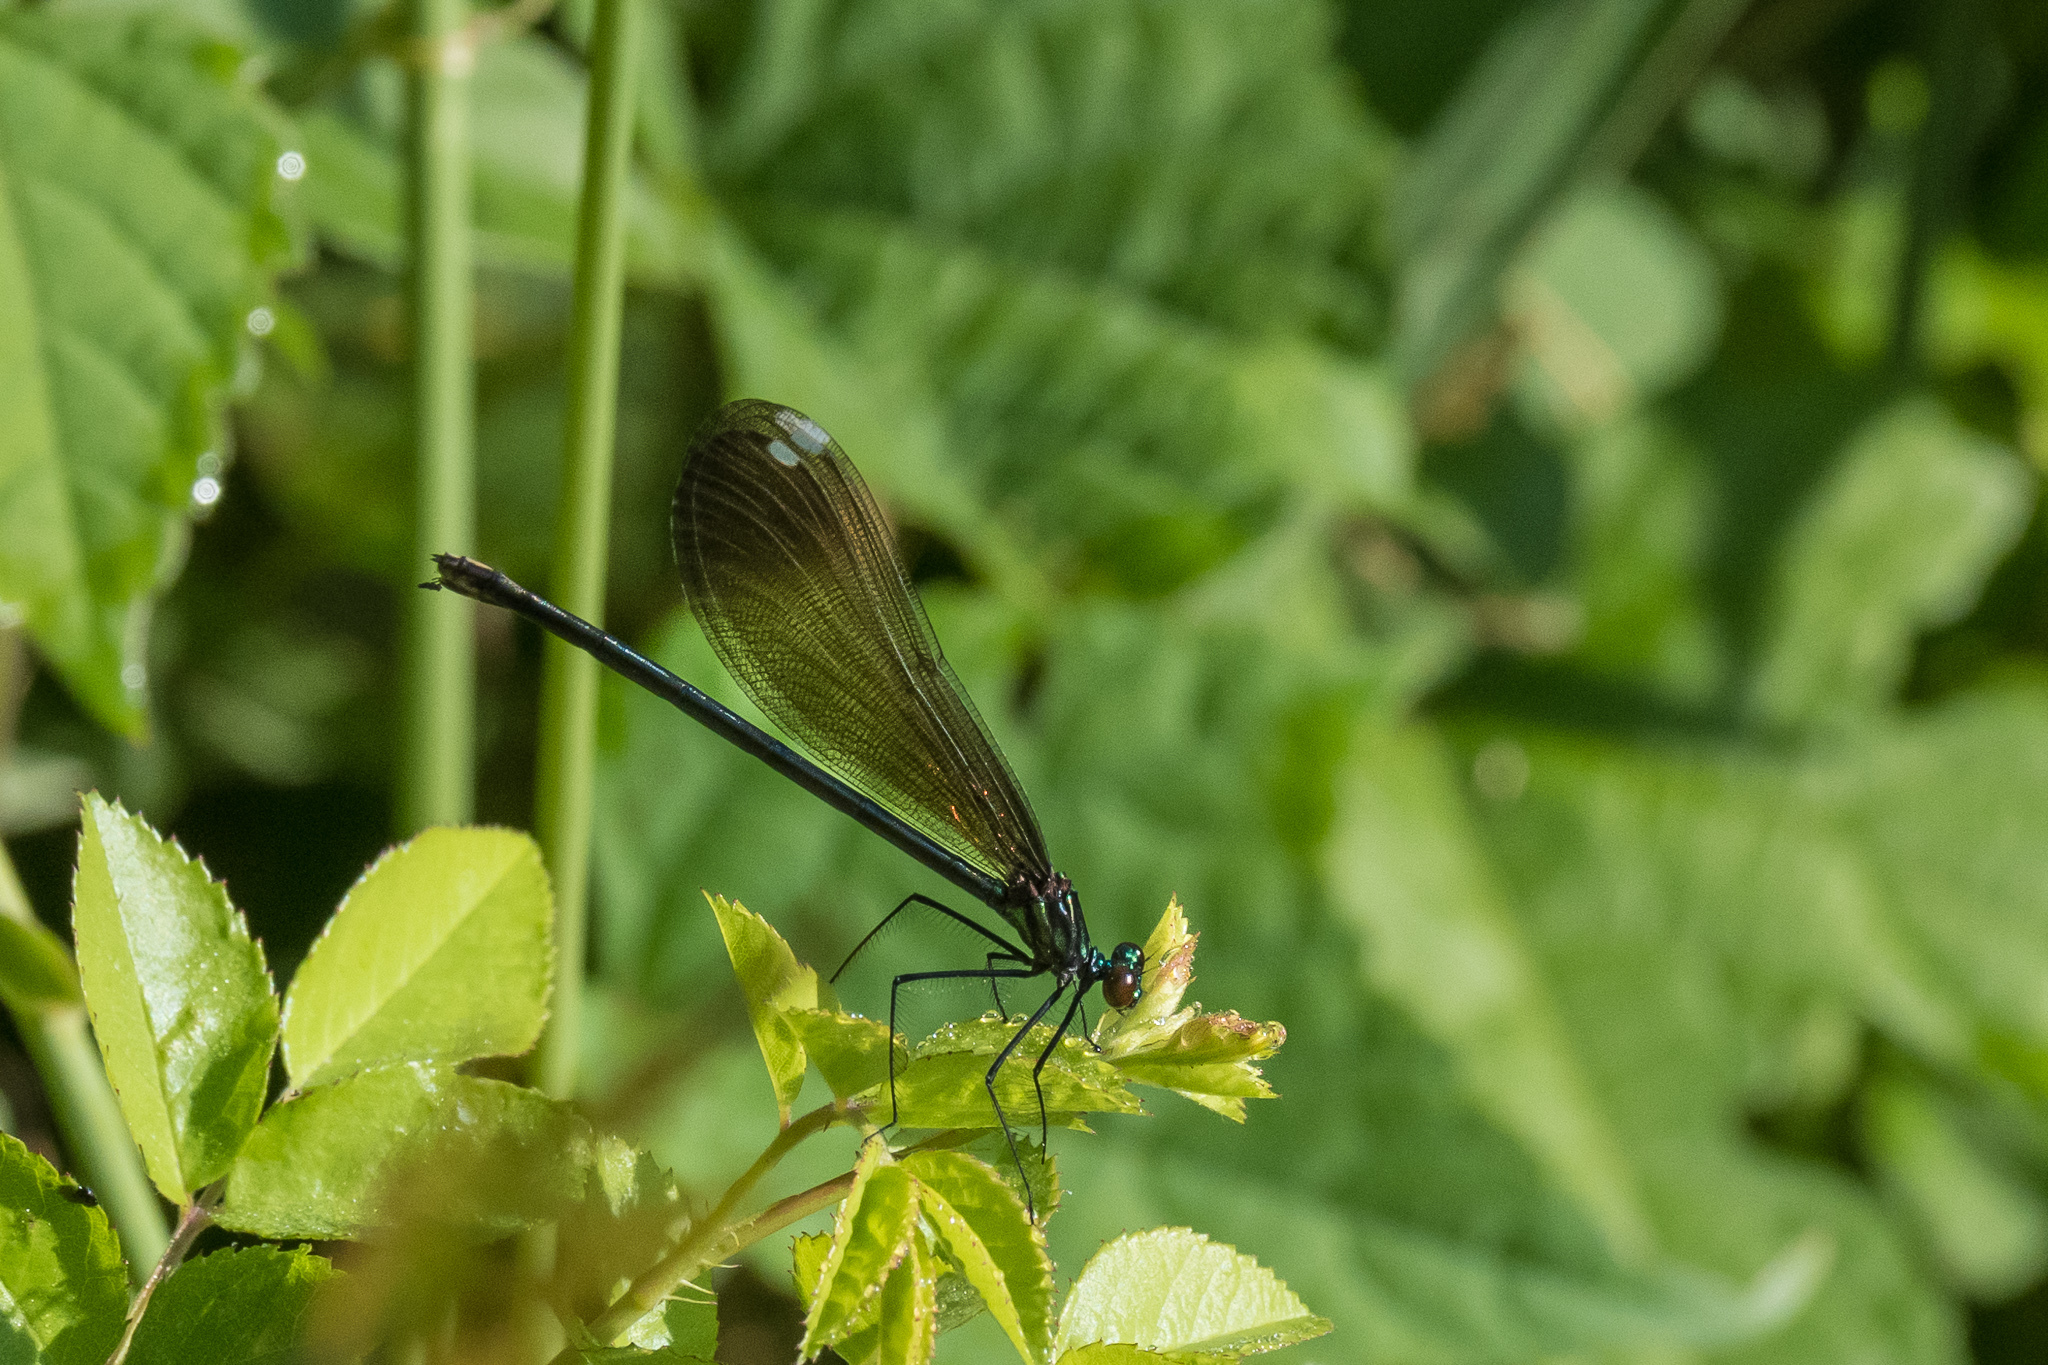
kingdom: Animalia
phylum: Arthropoda
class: Insecta
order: Odonata
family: Calopterygidae
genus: Calopteryx
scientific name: Calopteryx maculata
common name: Ebony jewelwing
